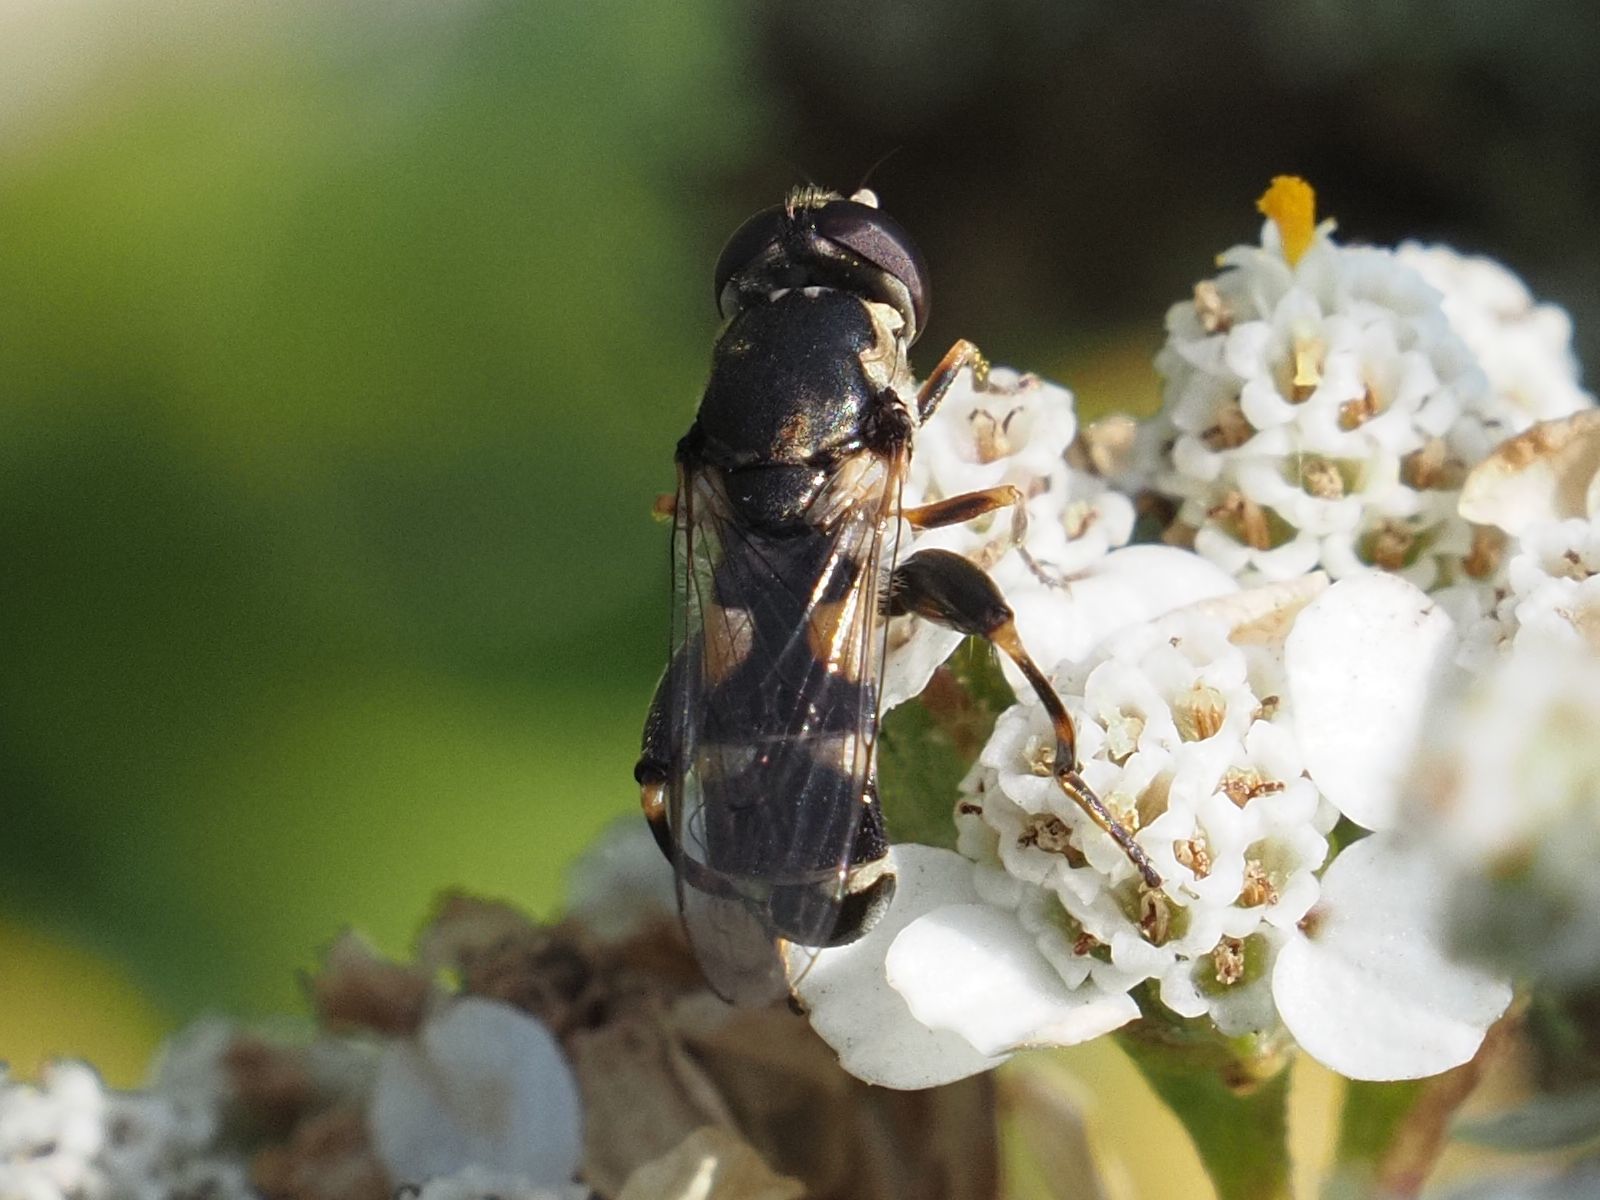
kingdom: Animalia
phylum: Arthropoda
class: Insecta
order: Diptera
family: Syrphidae
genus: Syritta
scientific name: Syritta pipiens
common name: Hover fly
